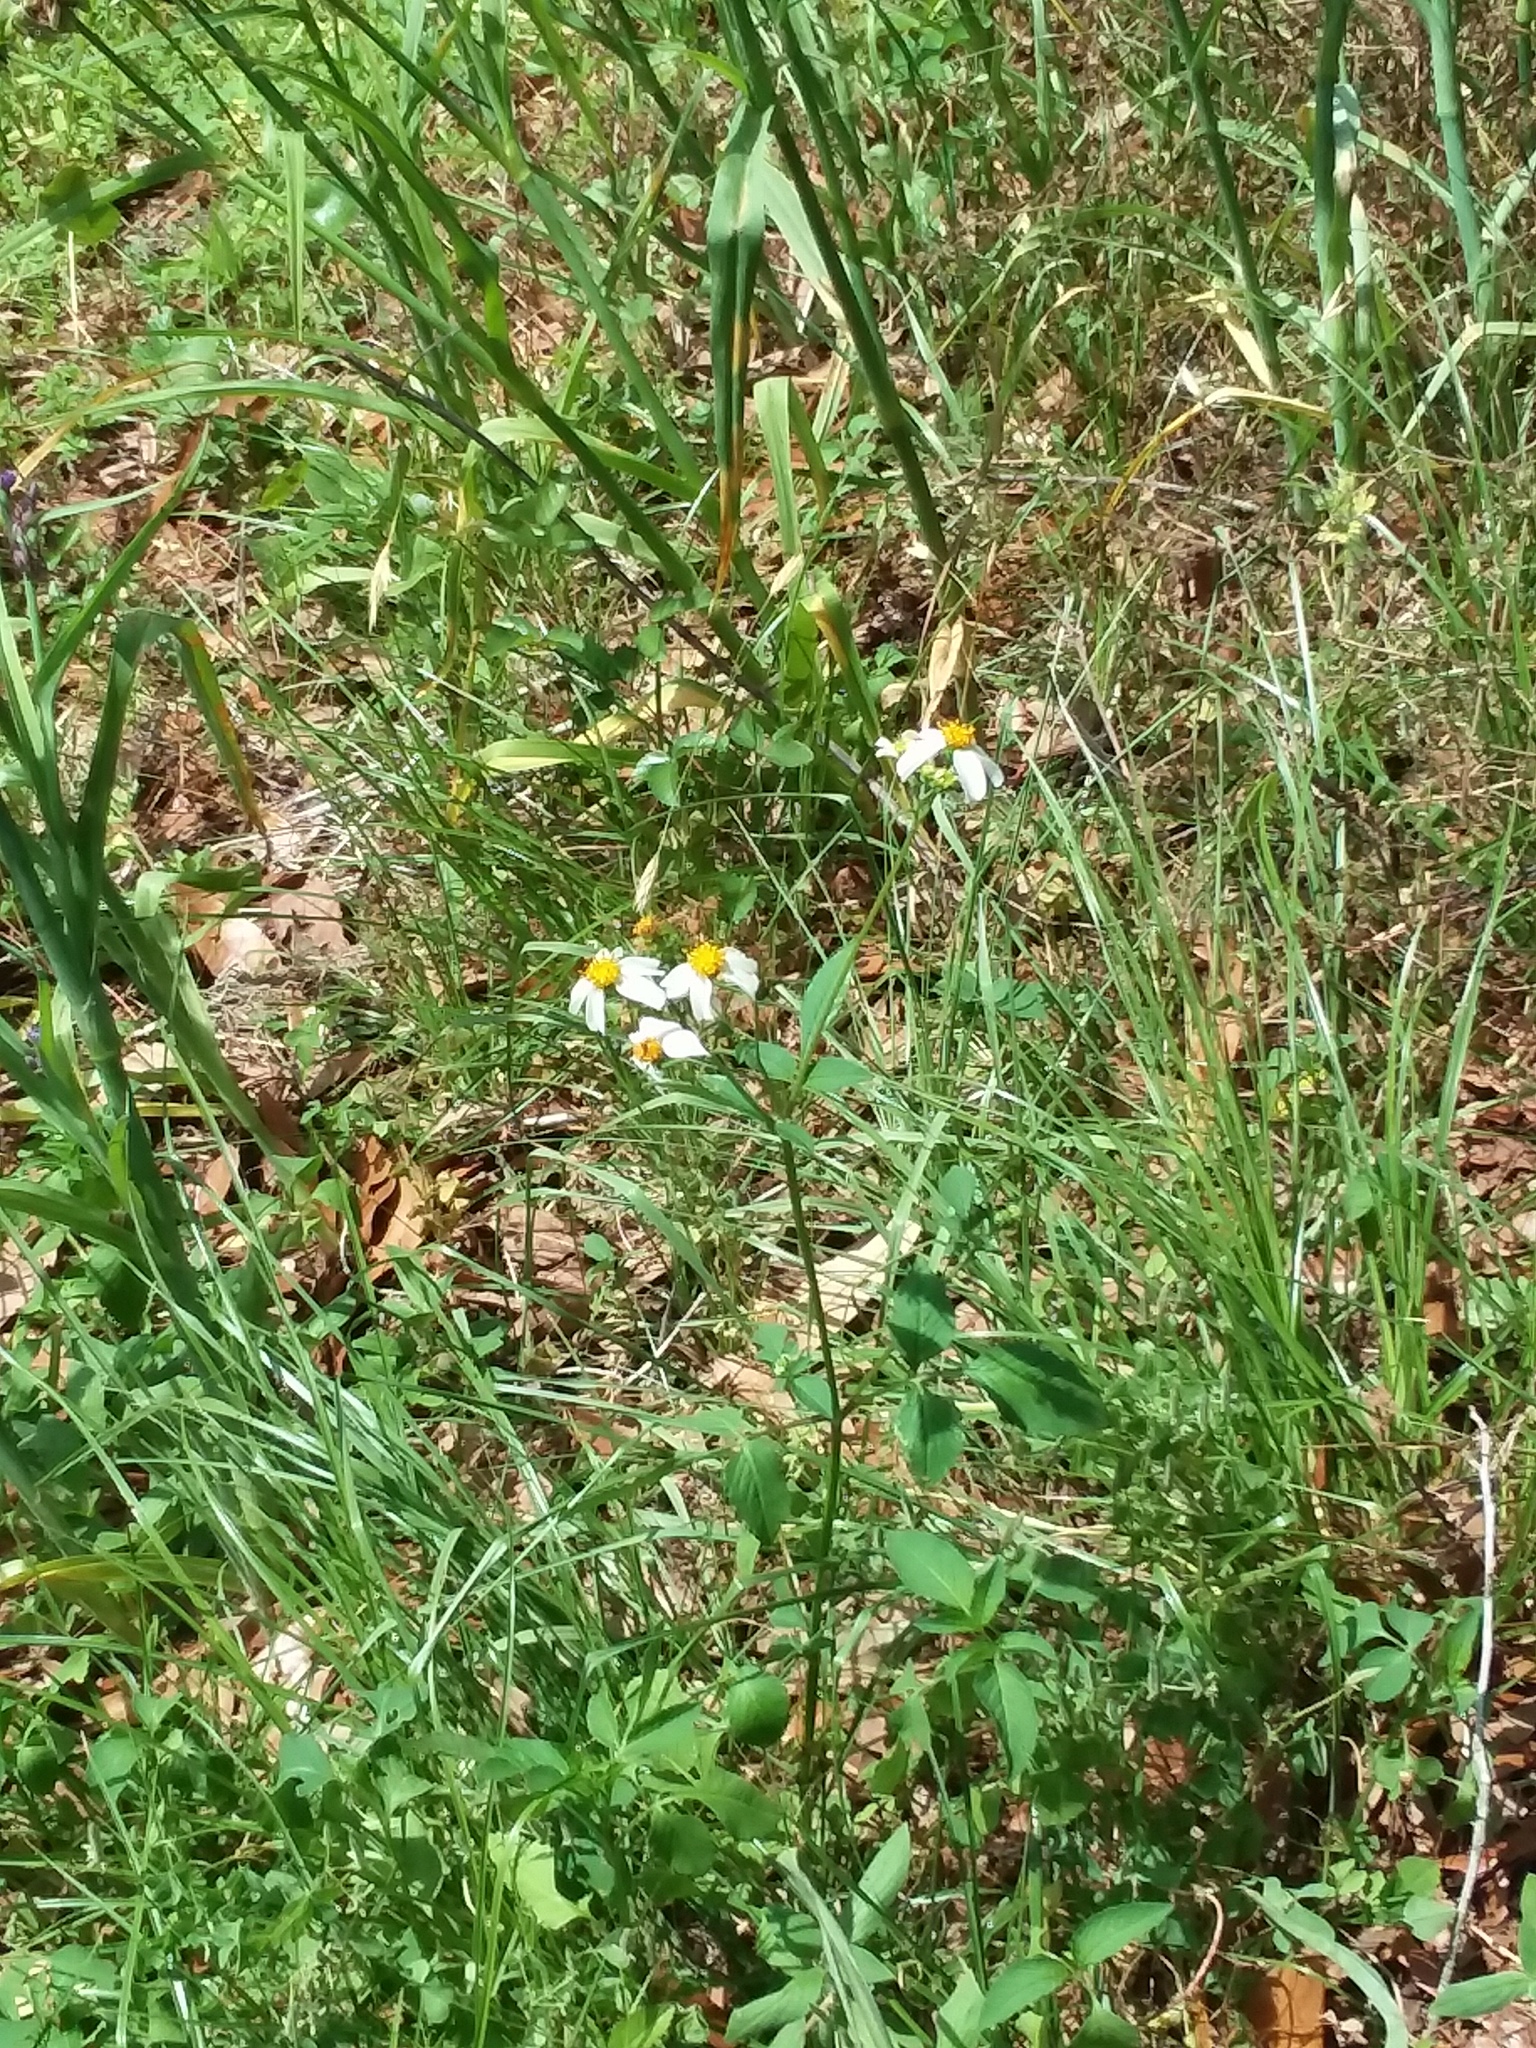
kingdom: Plantae
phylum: Tracheophyta
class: Magnoliopsida
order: Asterales
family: Asteraceae
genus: Bidens
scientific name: Bidens alba
